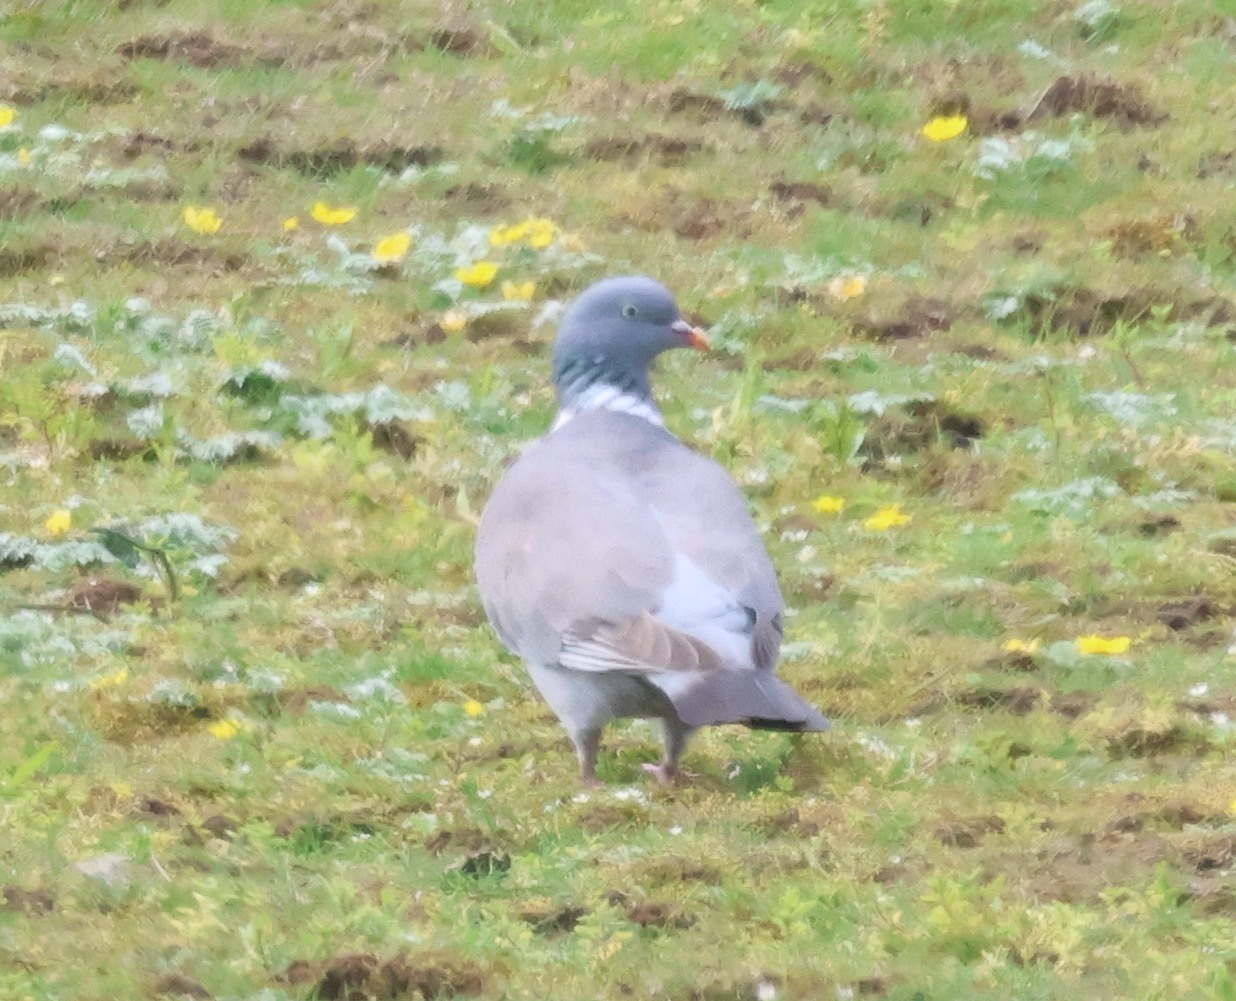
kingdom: Animalia
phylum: Chordata
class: Aves
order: Columbiformes
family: Columbidae
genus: Columba
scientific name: Columba palumbus
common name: Common wood pigeon
